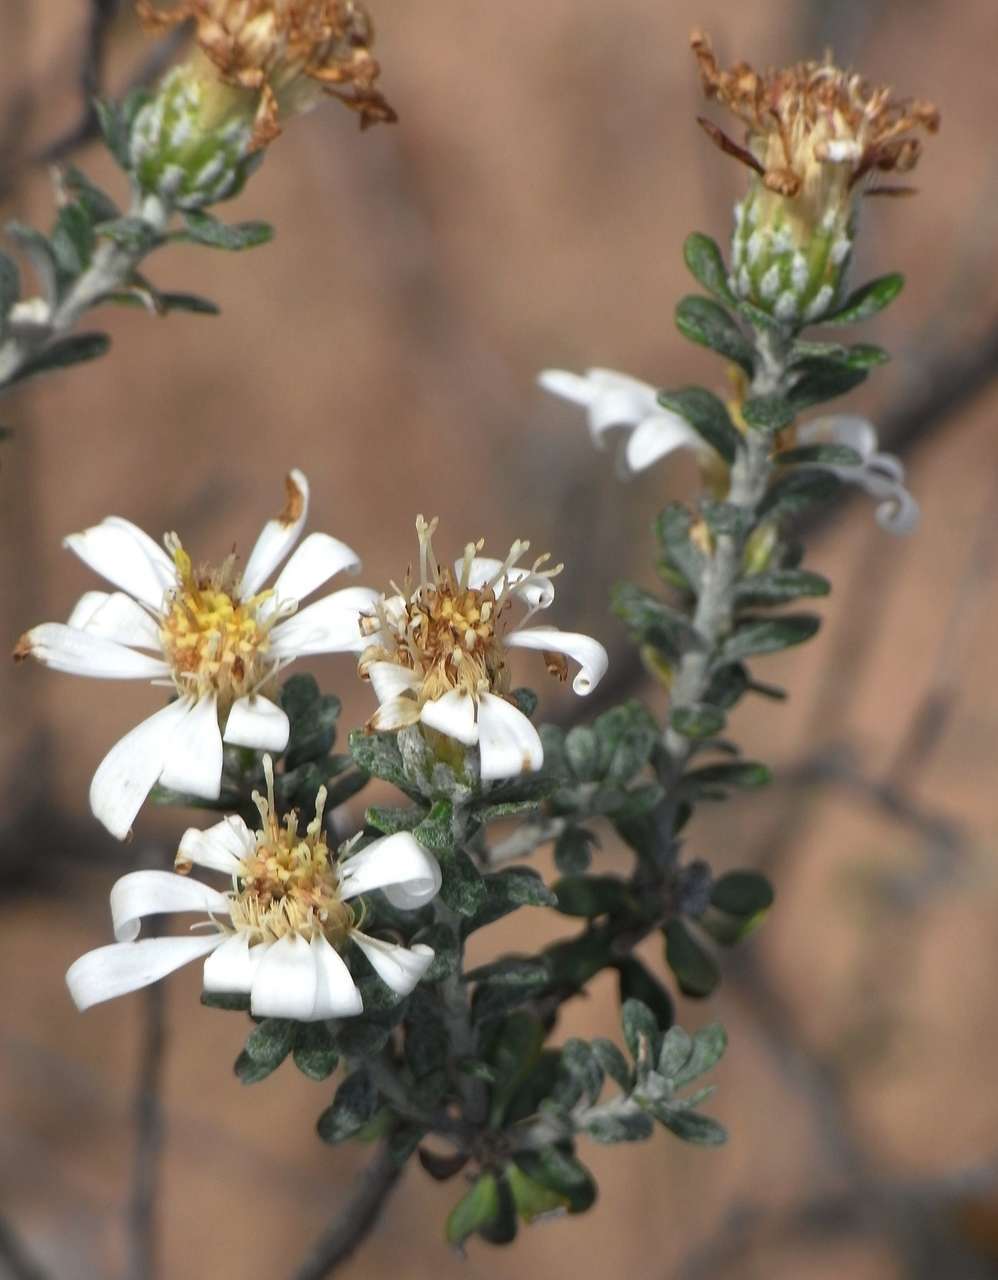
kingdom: Plantae
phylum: Tracheophyta
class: Magnoliopsida
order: Asterales
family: Asteraceae
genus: Olearia
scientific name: Olearia pimeleoides
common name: Showy daisybush
